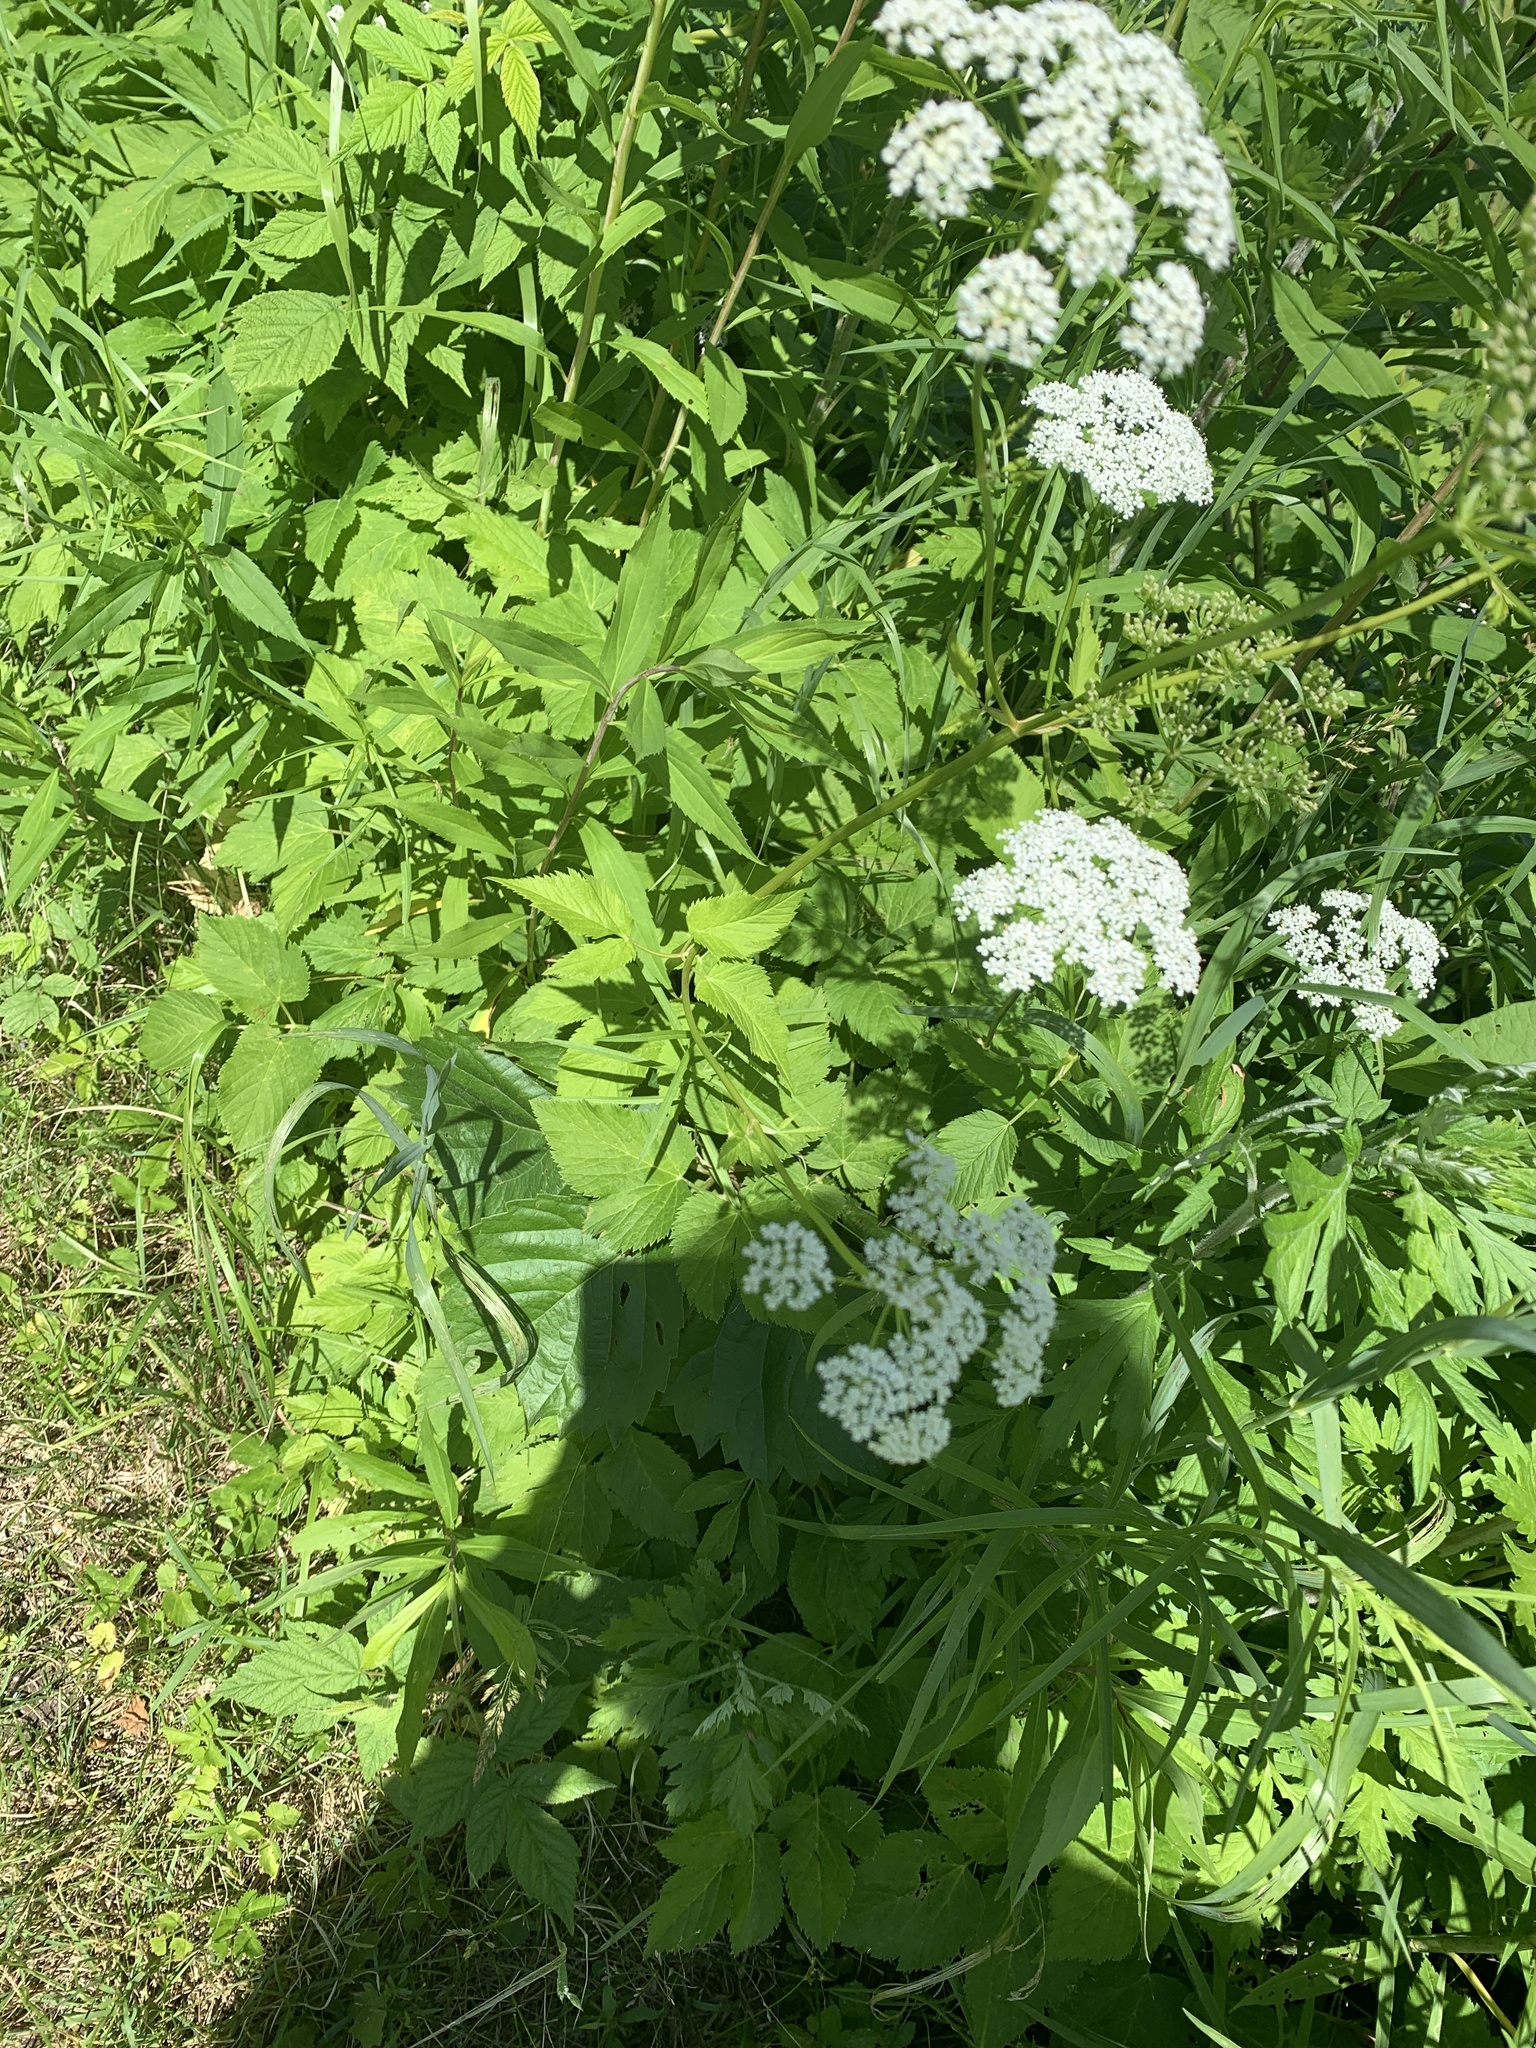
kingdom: Plantae
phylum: Tracheophyta
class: Magnoliopsida
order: Apiales
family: Apiaceae
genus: Aegopodium
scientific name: Aegopodium podagraria
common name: Ground-elder
